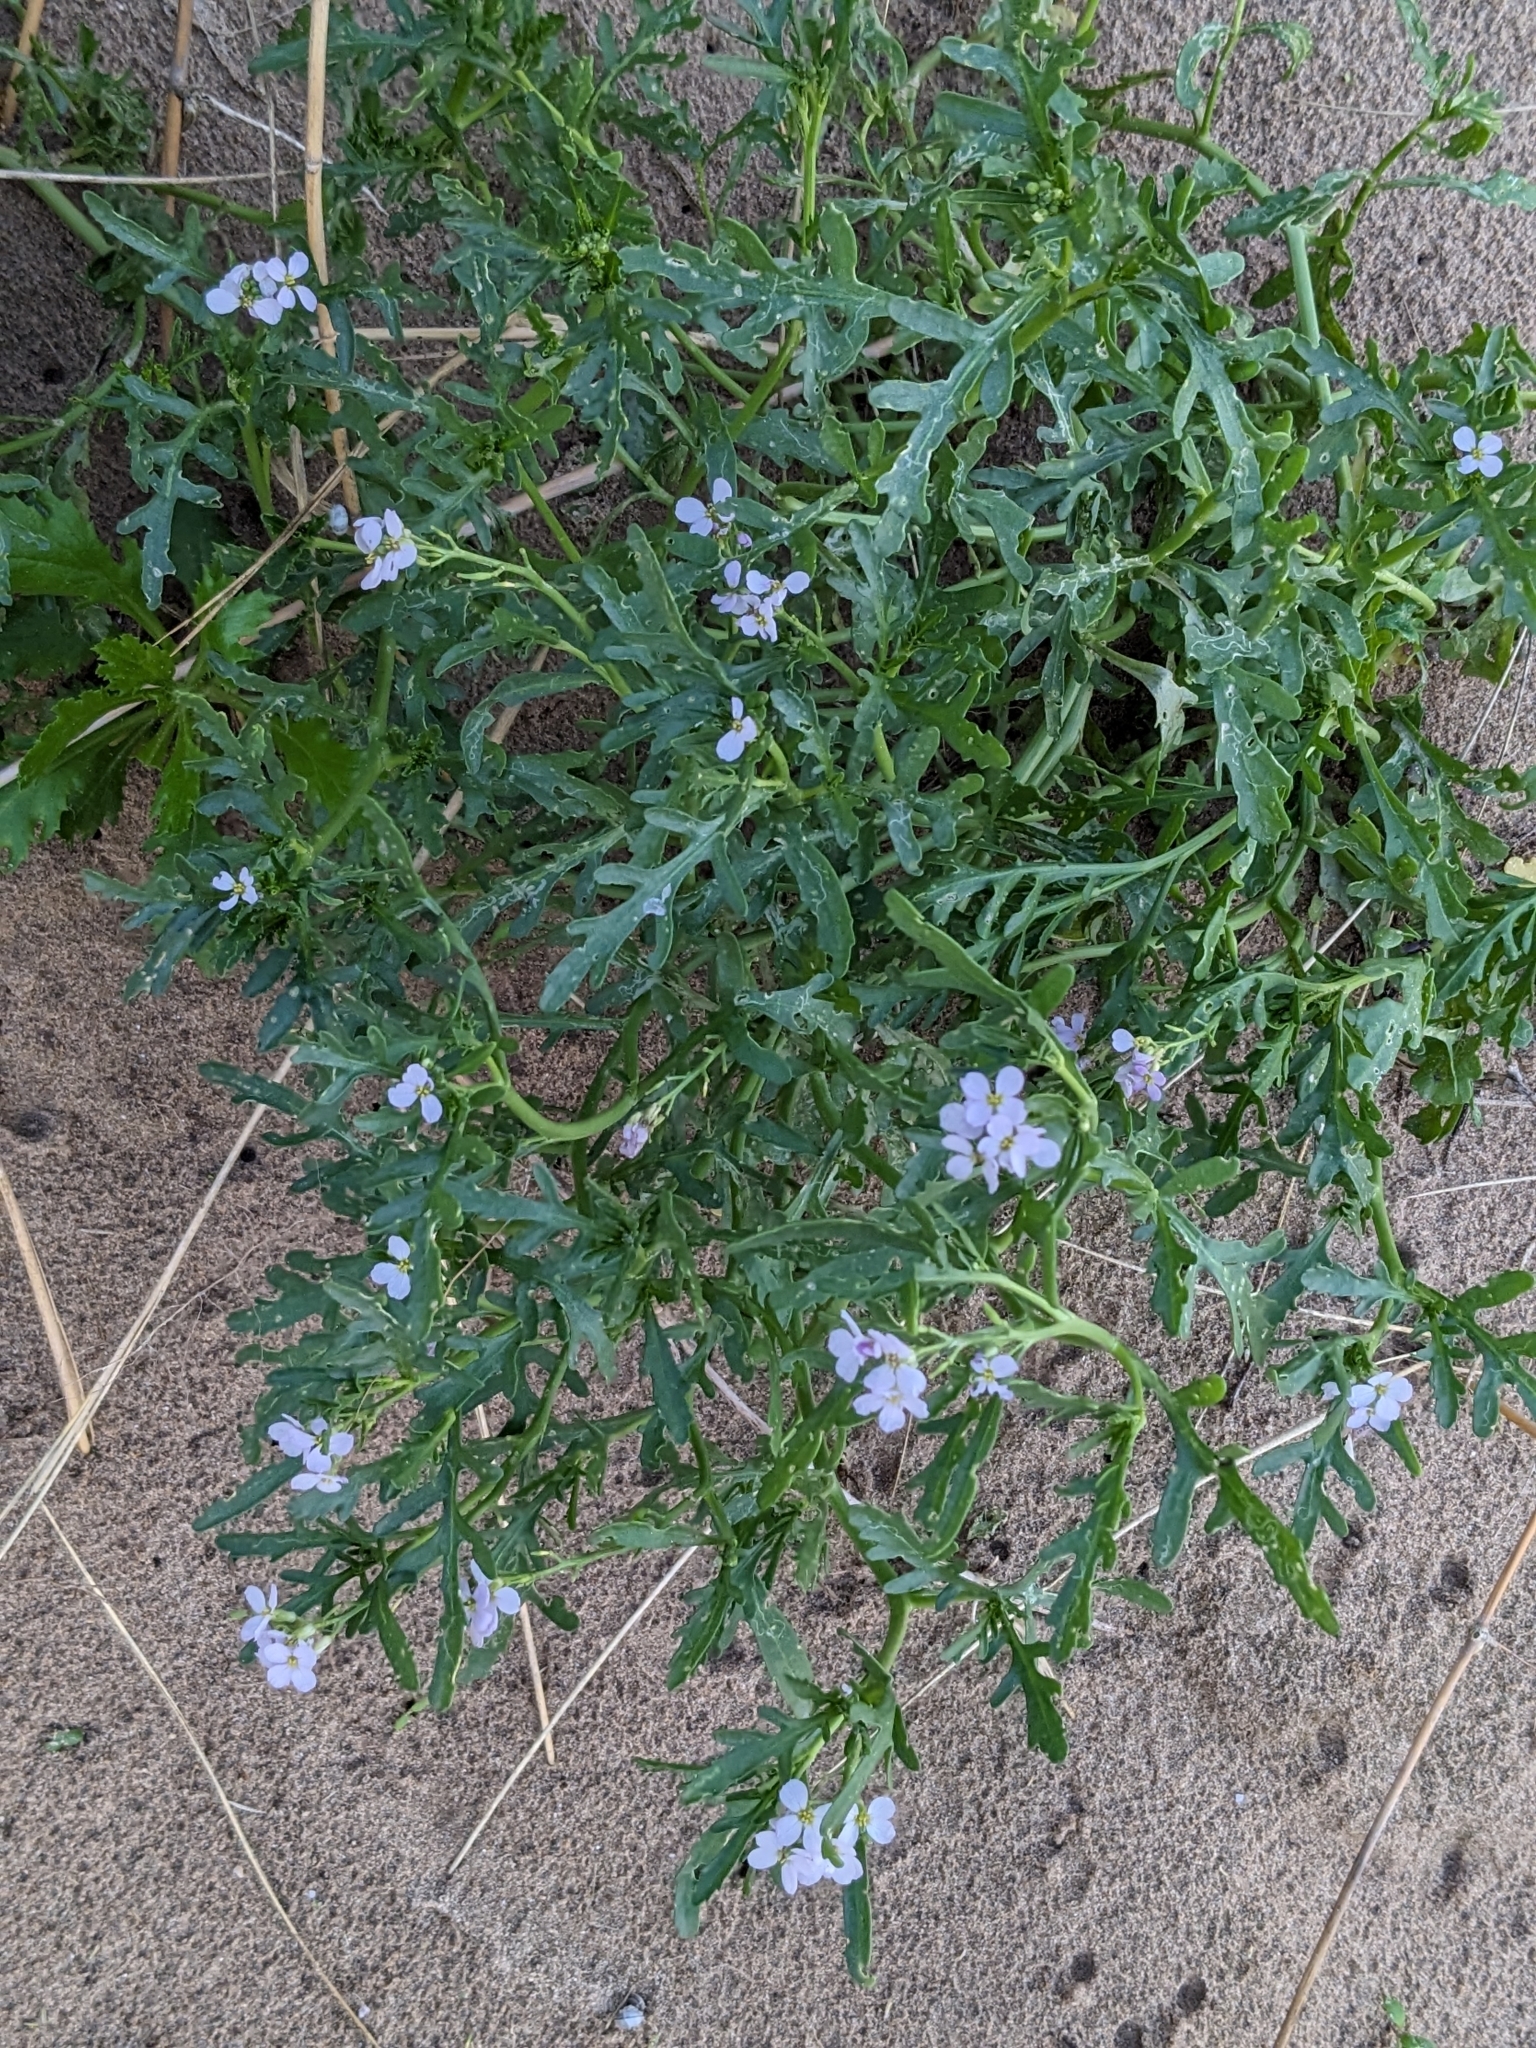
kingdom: Plantae
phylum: Tracheophyta
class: Magnoliopsida
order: Brassicales
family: Brassicaceae
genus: Cakile
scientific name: Cakile maritima
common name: Sea rocket
